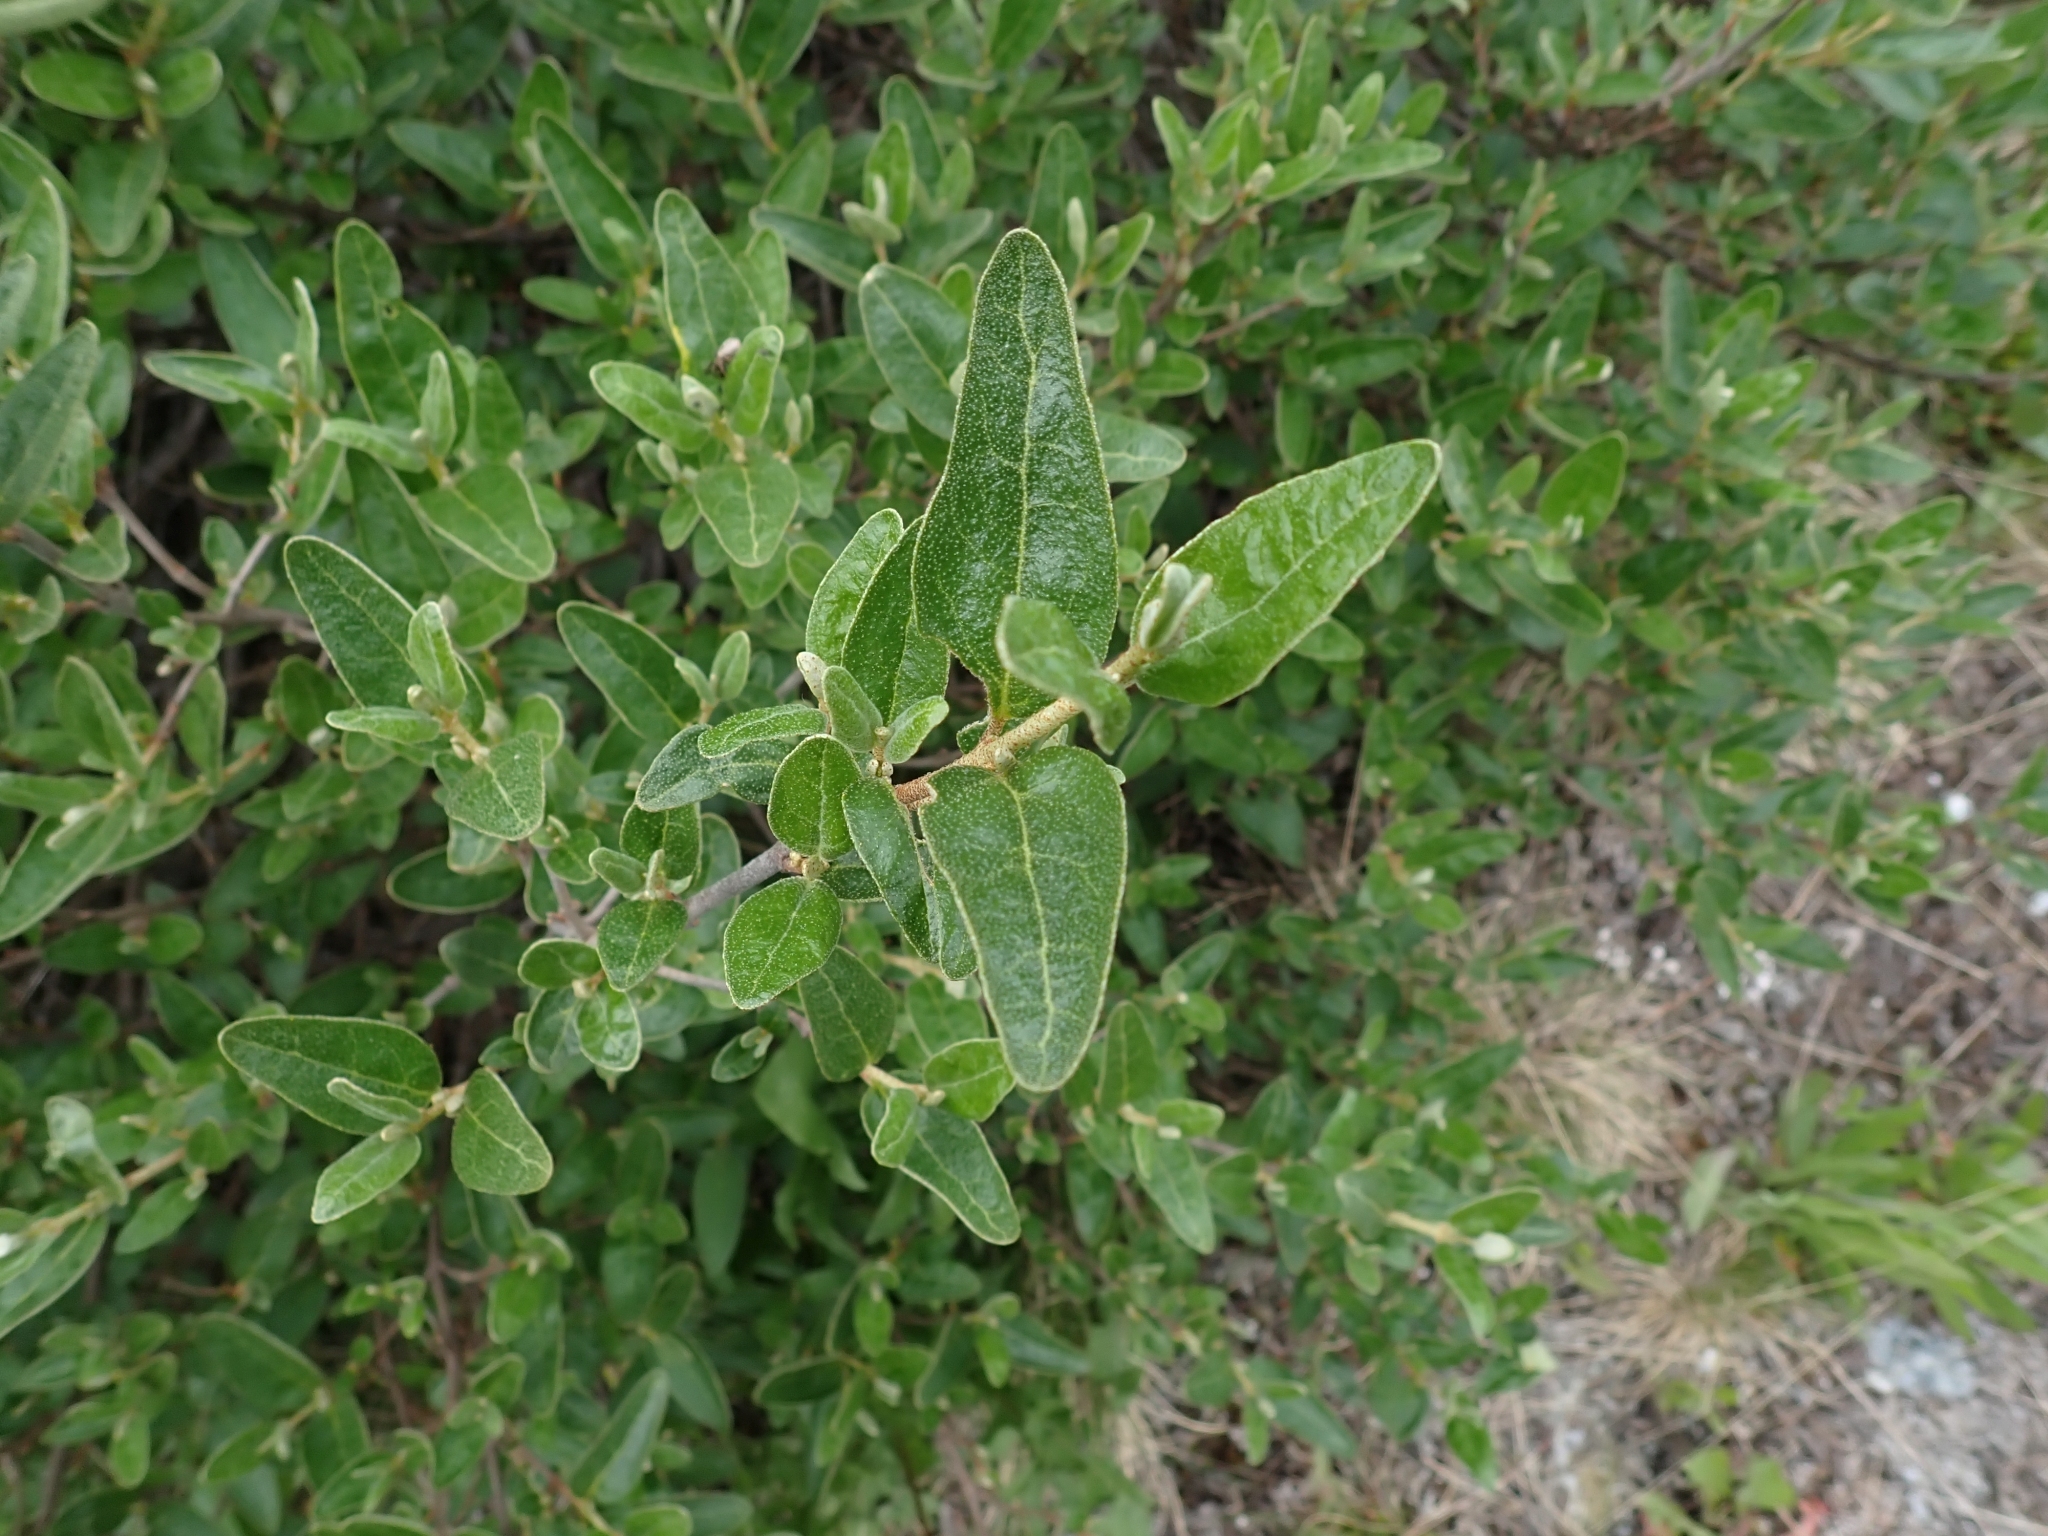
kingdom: Plantae
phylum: Tracheophyta
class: Magnoliopsida
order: Rosales
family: Elaeagnaceae
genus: Shepherdia
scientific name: Shepherdia canadensis
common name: Soapberry
